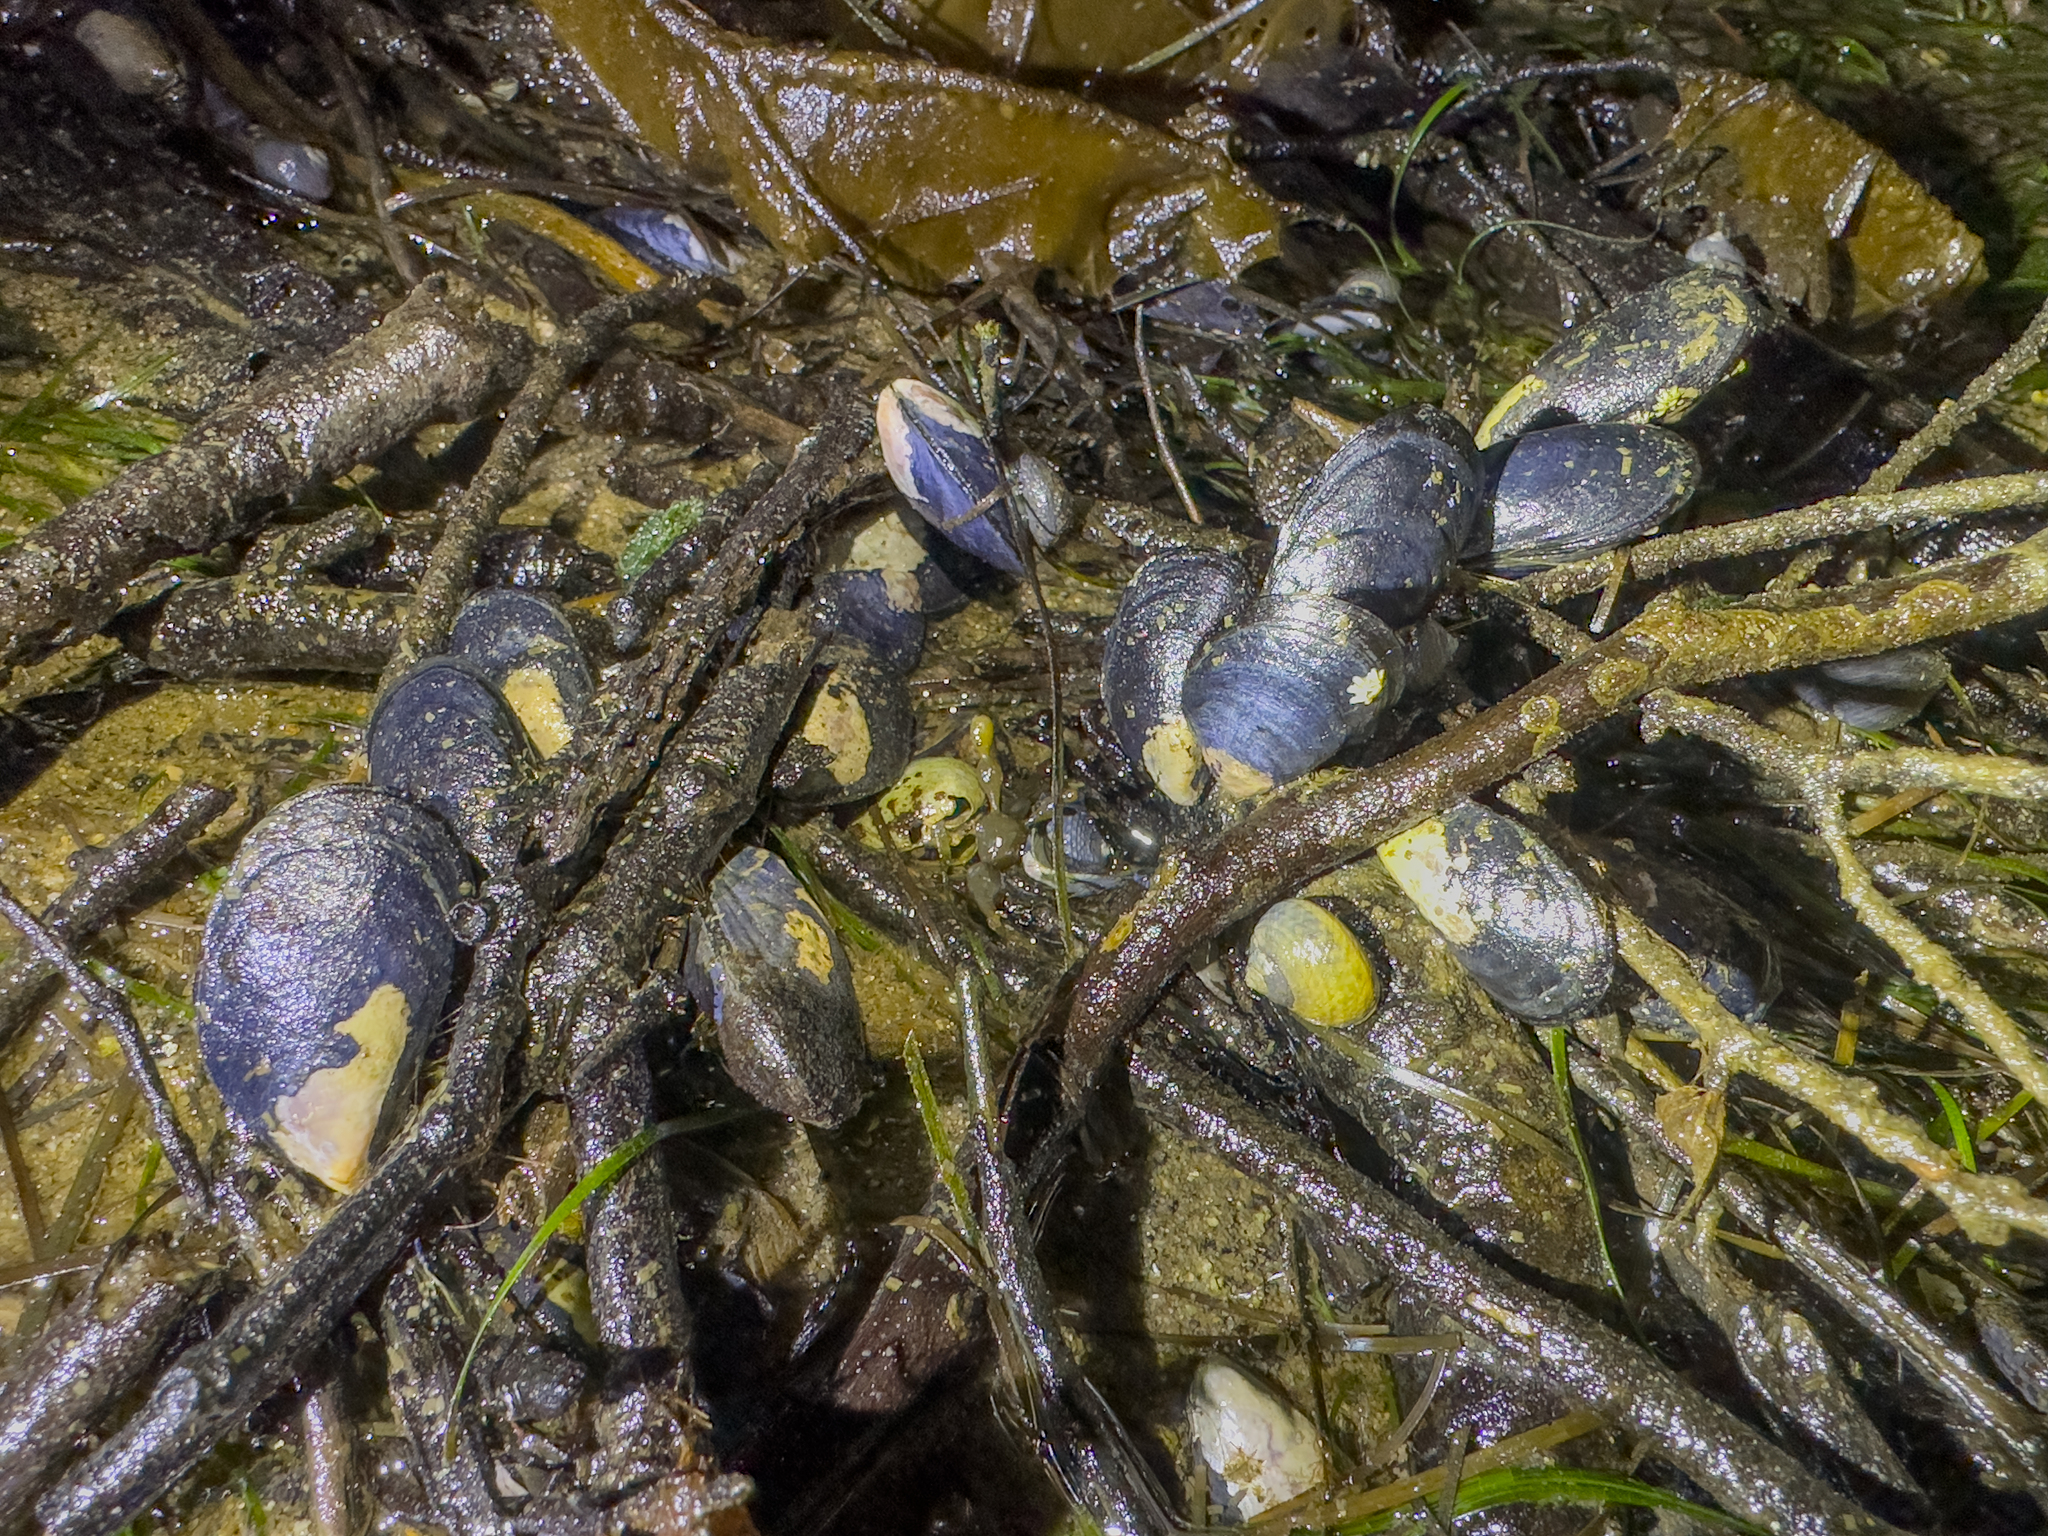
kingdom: Animalia
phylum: Mollusca
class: Bivalvia
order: Mytilida
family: Mytilidae
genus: Mytilus
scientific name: Mytilus planulatus
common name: Australian mussel
